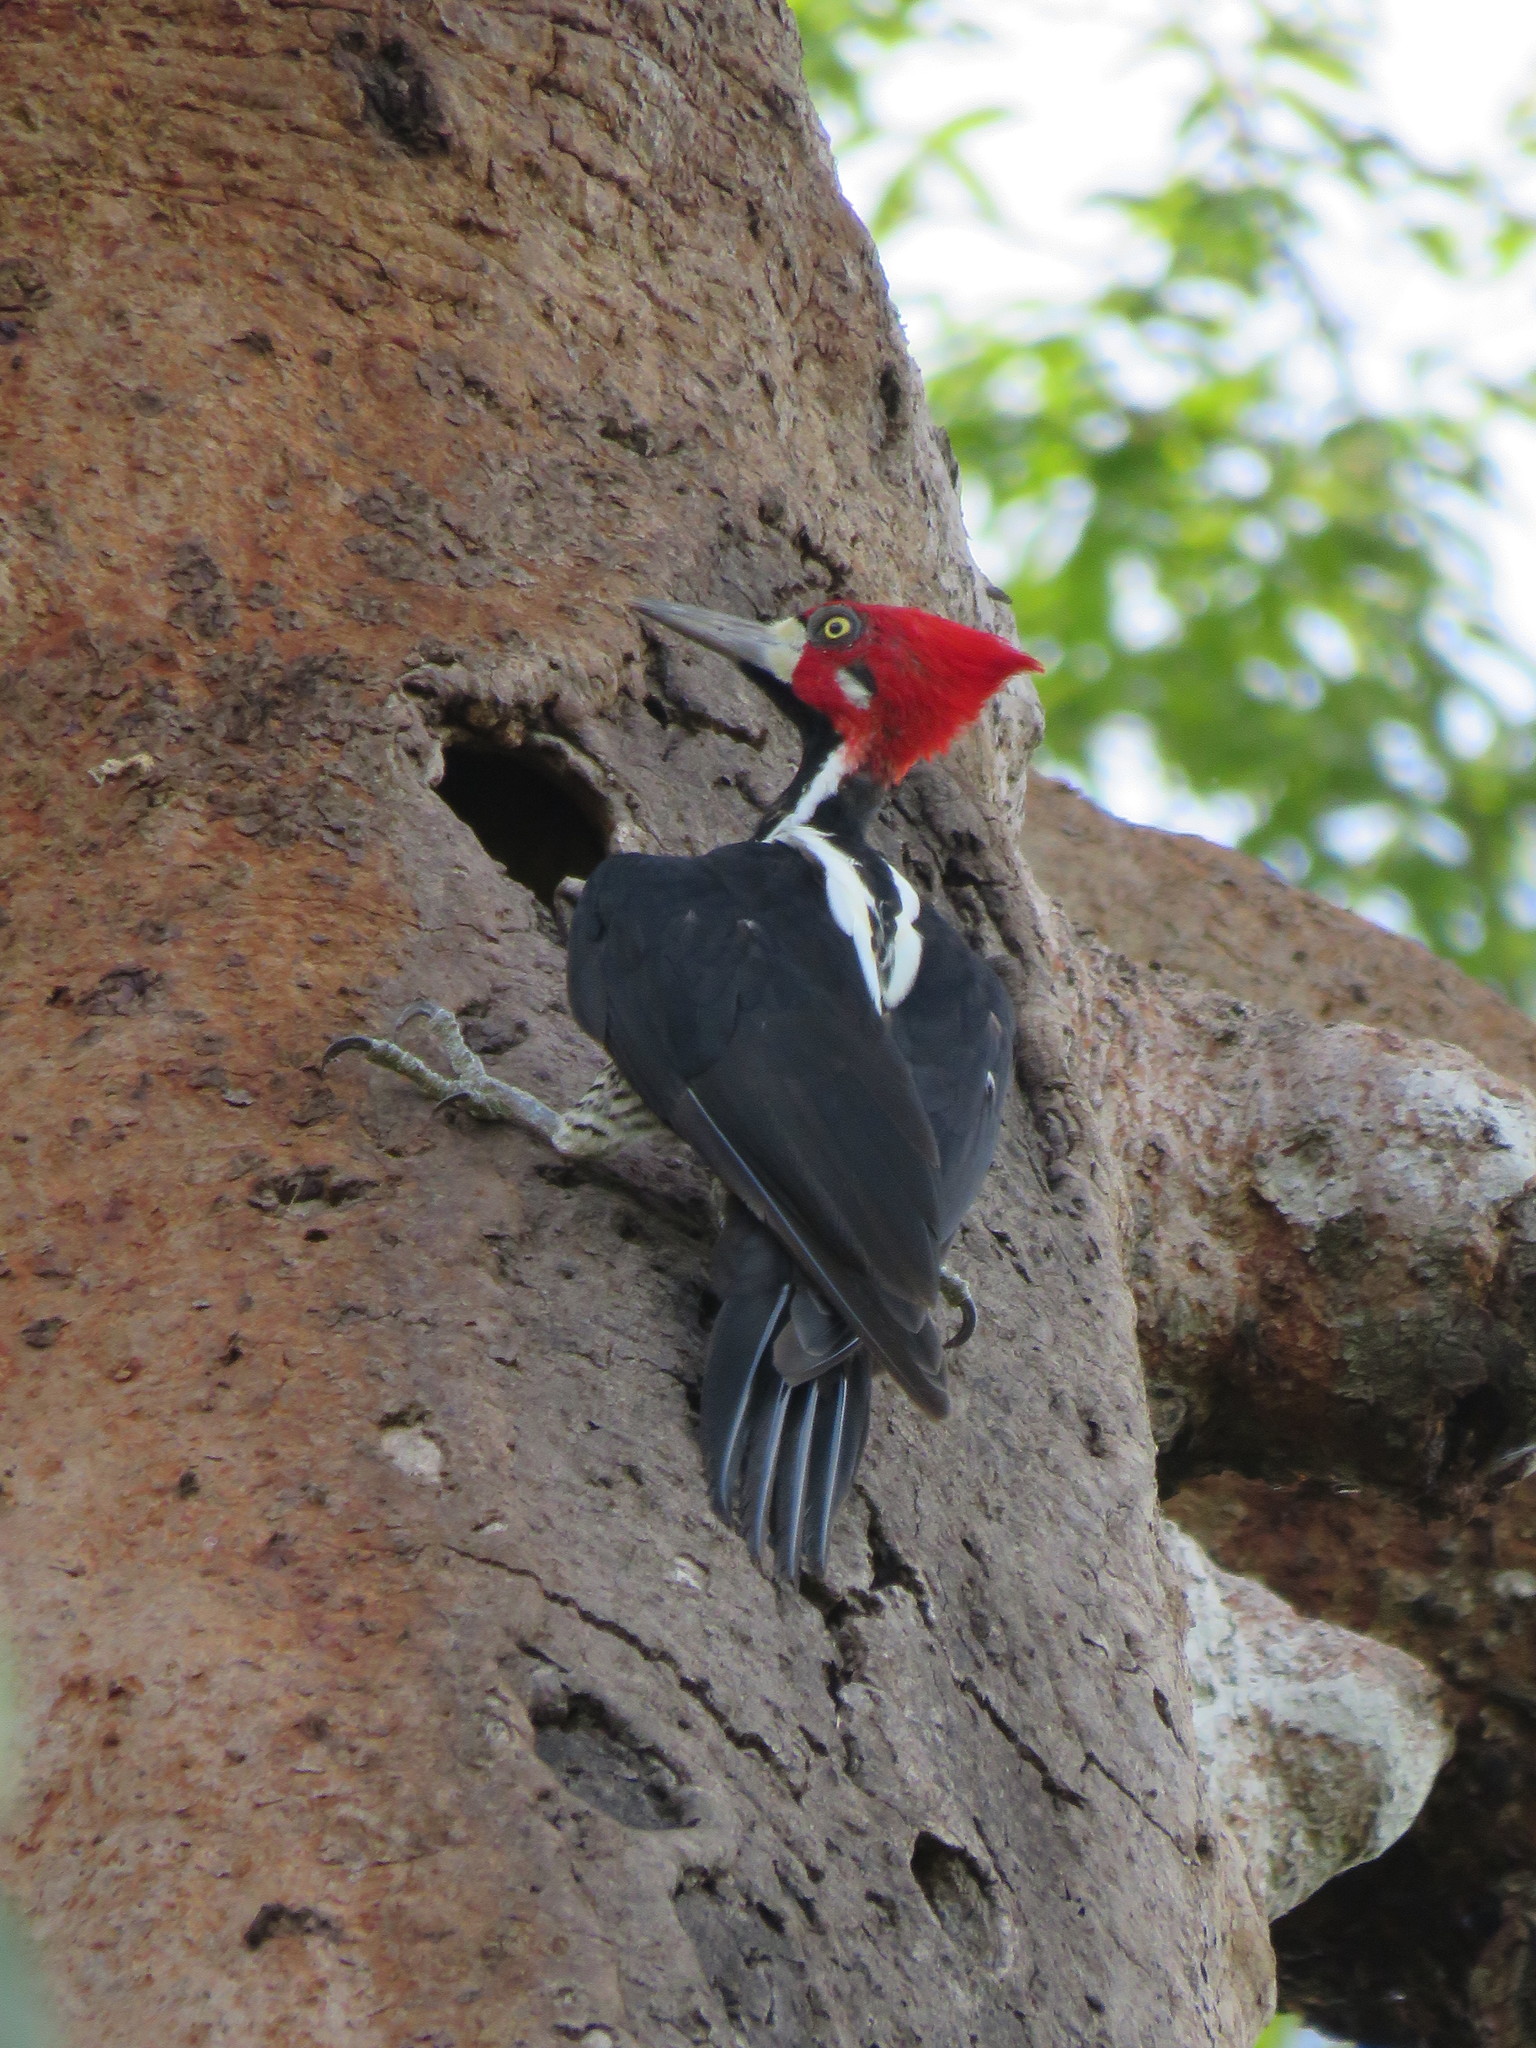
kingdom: Animalia
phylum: Chordata
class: Aves
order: Piciformes
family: Picidae
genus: Campephilus
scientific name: Campephilus melanoleucos
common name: Crimson-crested woodpecker
